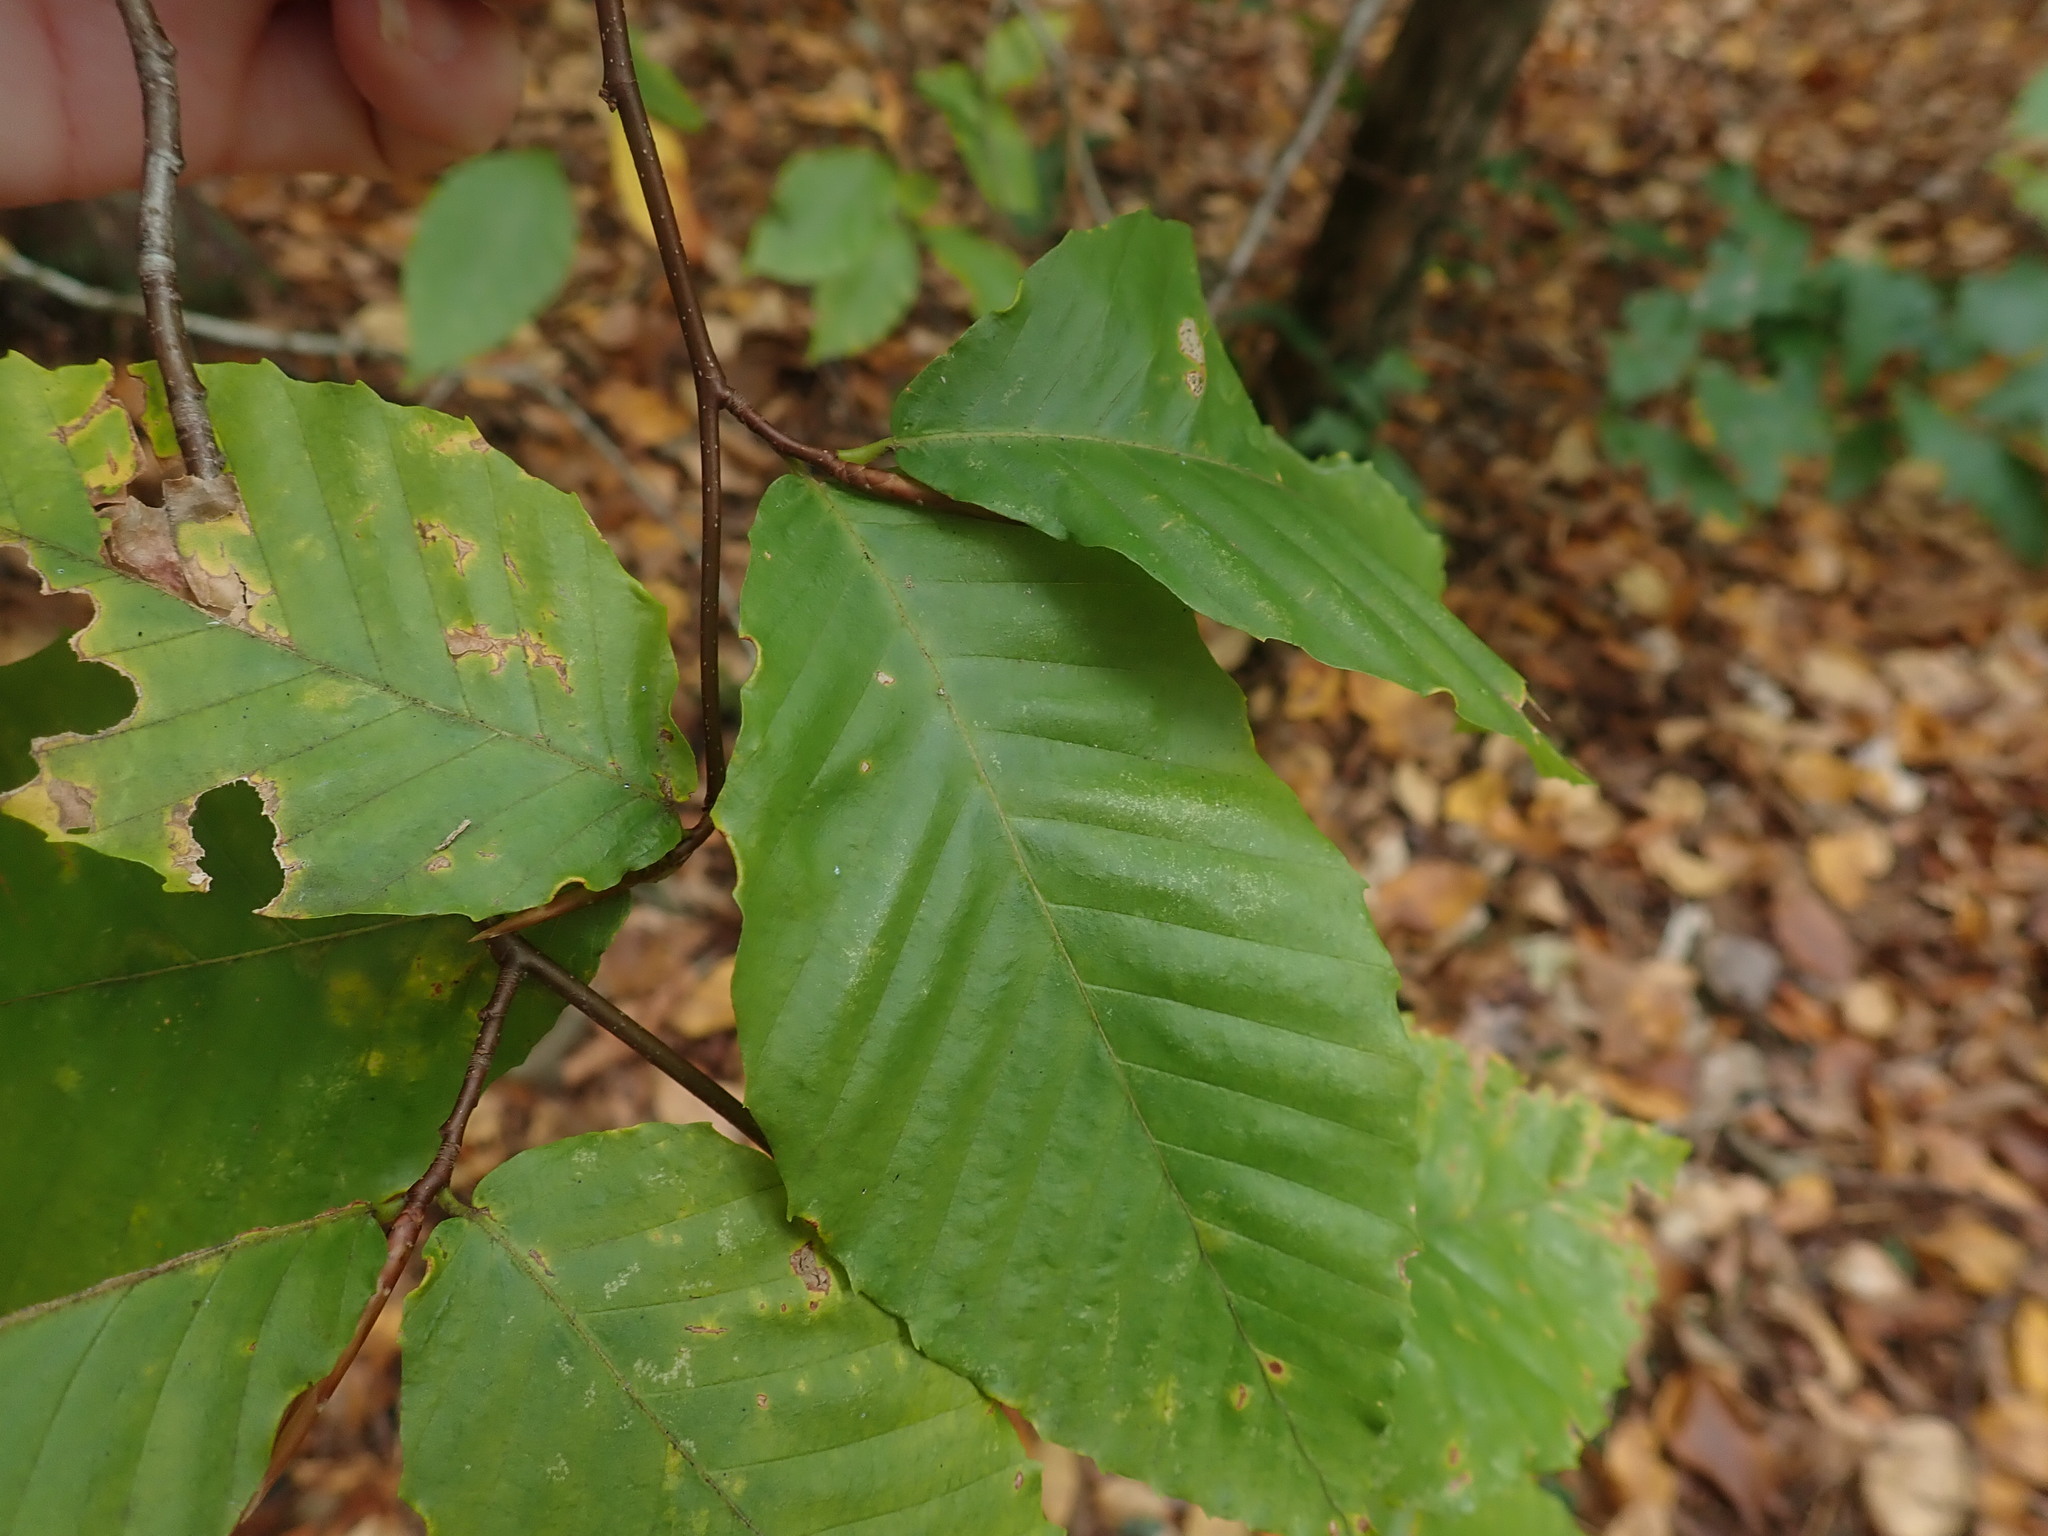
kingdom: Plantae
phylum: Tracheophyta
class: Magnoliopsida
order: Fagales
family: Fagaceae
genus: Fagus
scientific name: Fagus grandifolia
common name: American beech
